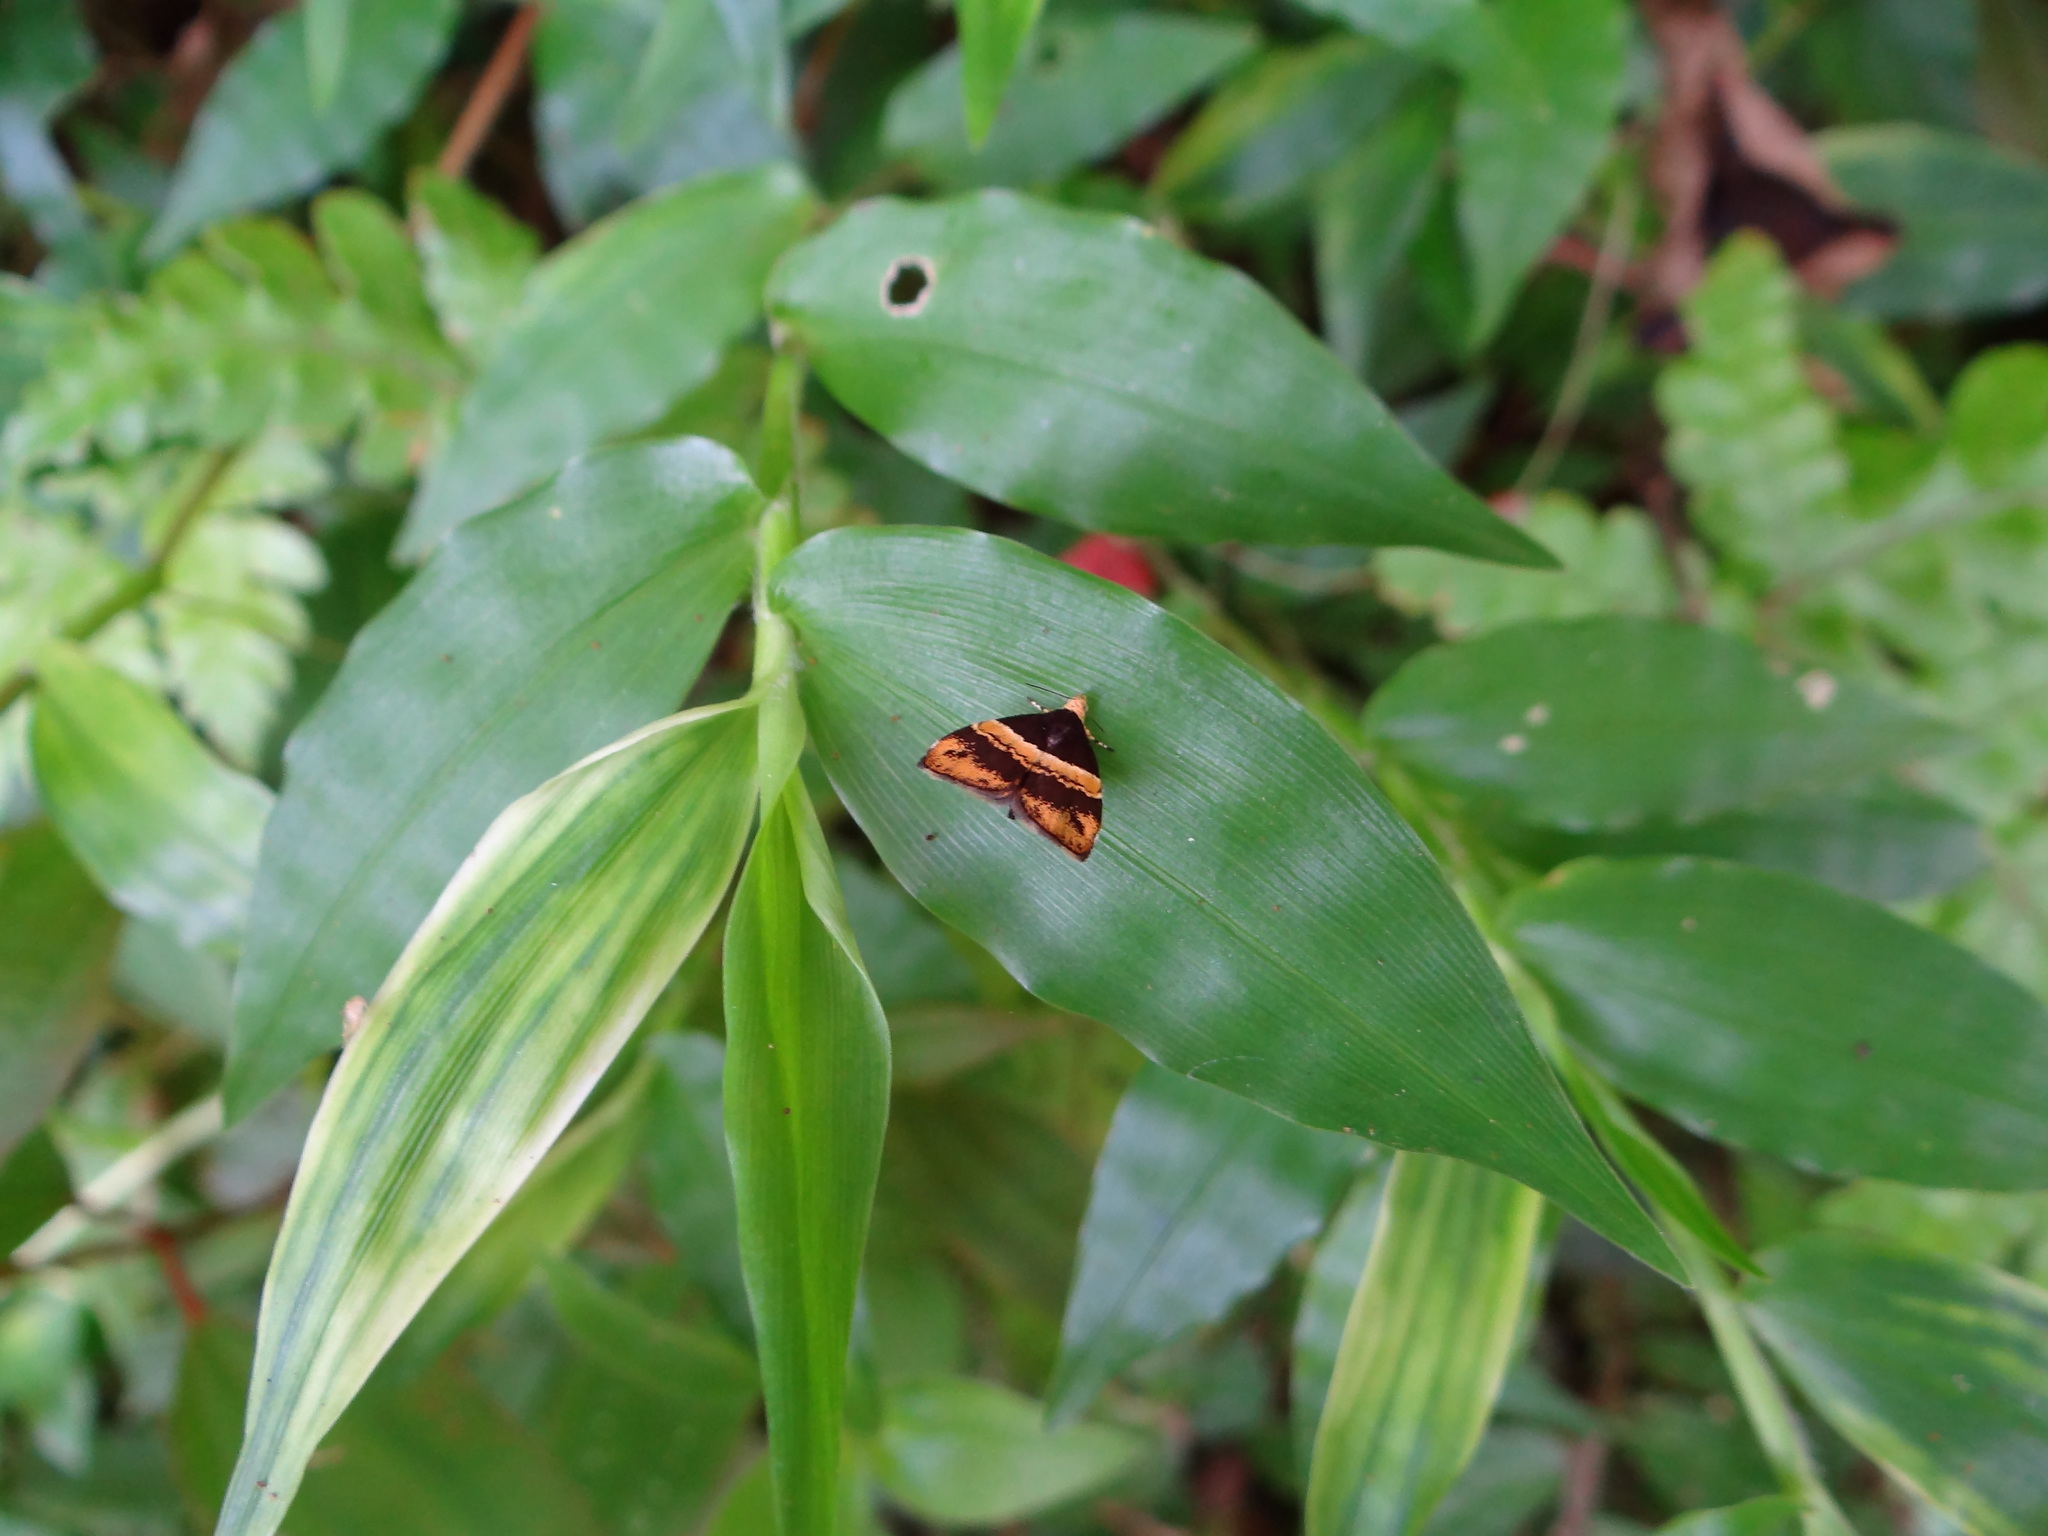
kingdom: Animalia
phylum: Arthropoda
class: Insecta
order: Lepidoptera
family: Choreutidae
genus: Choreutis
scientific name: Choreutis basalis
